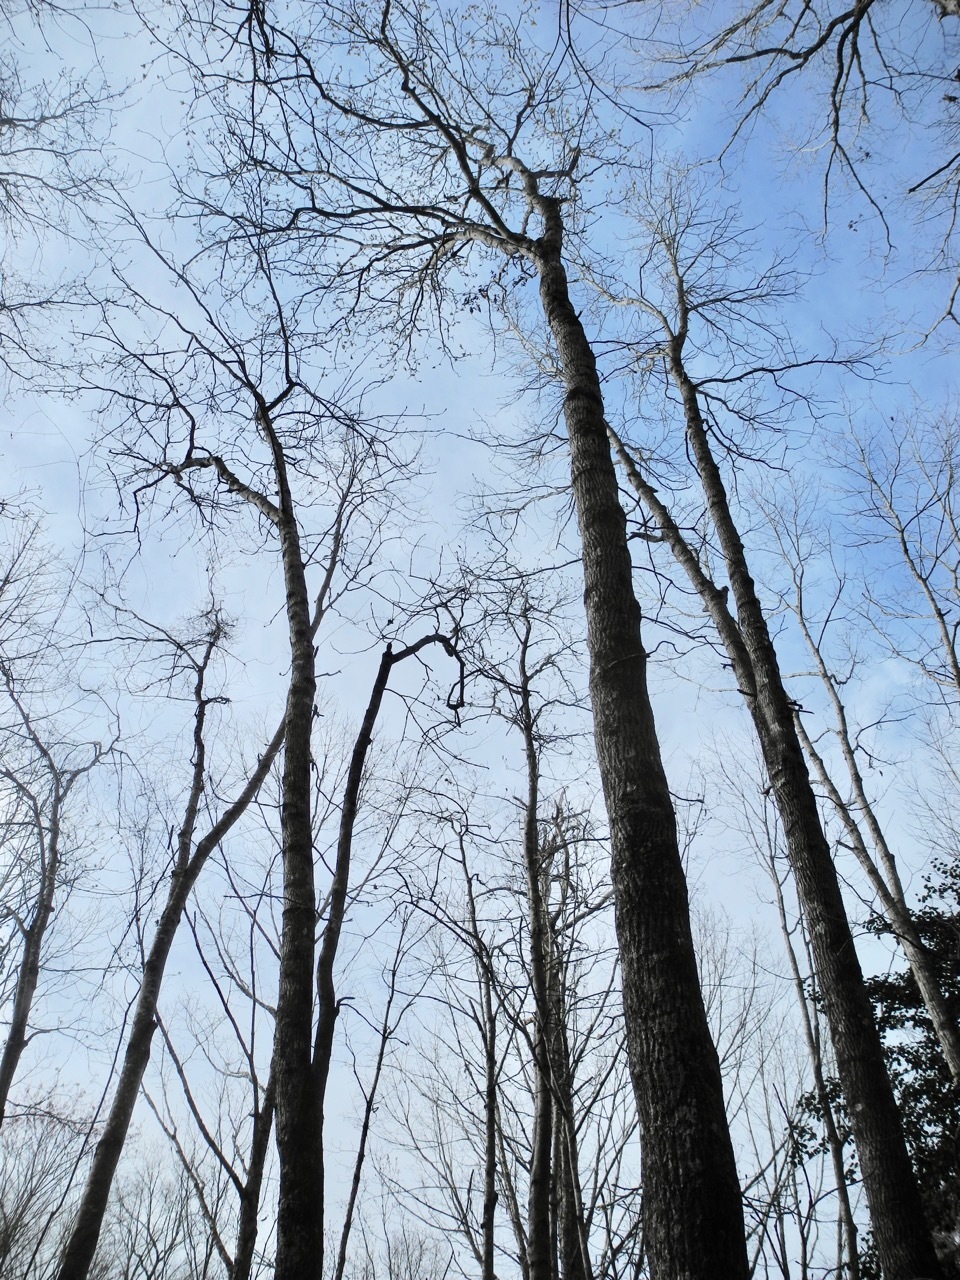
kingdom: Plantae
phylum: Tracheophyta
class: Magnoliopsida
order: Fagales
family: Juglandaceae
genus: Carya
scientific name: Carya alba
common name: Mockernut hickory
